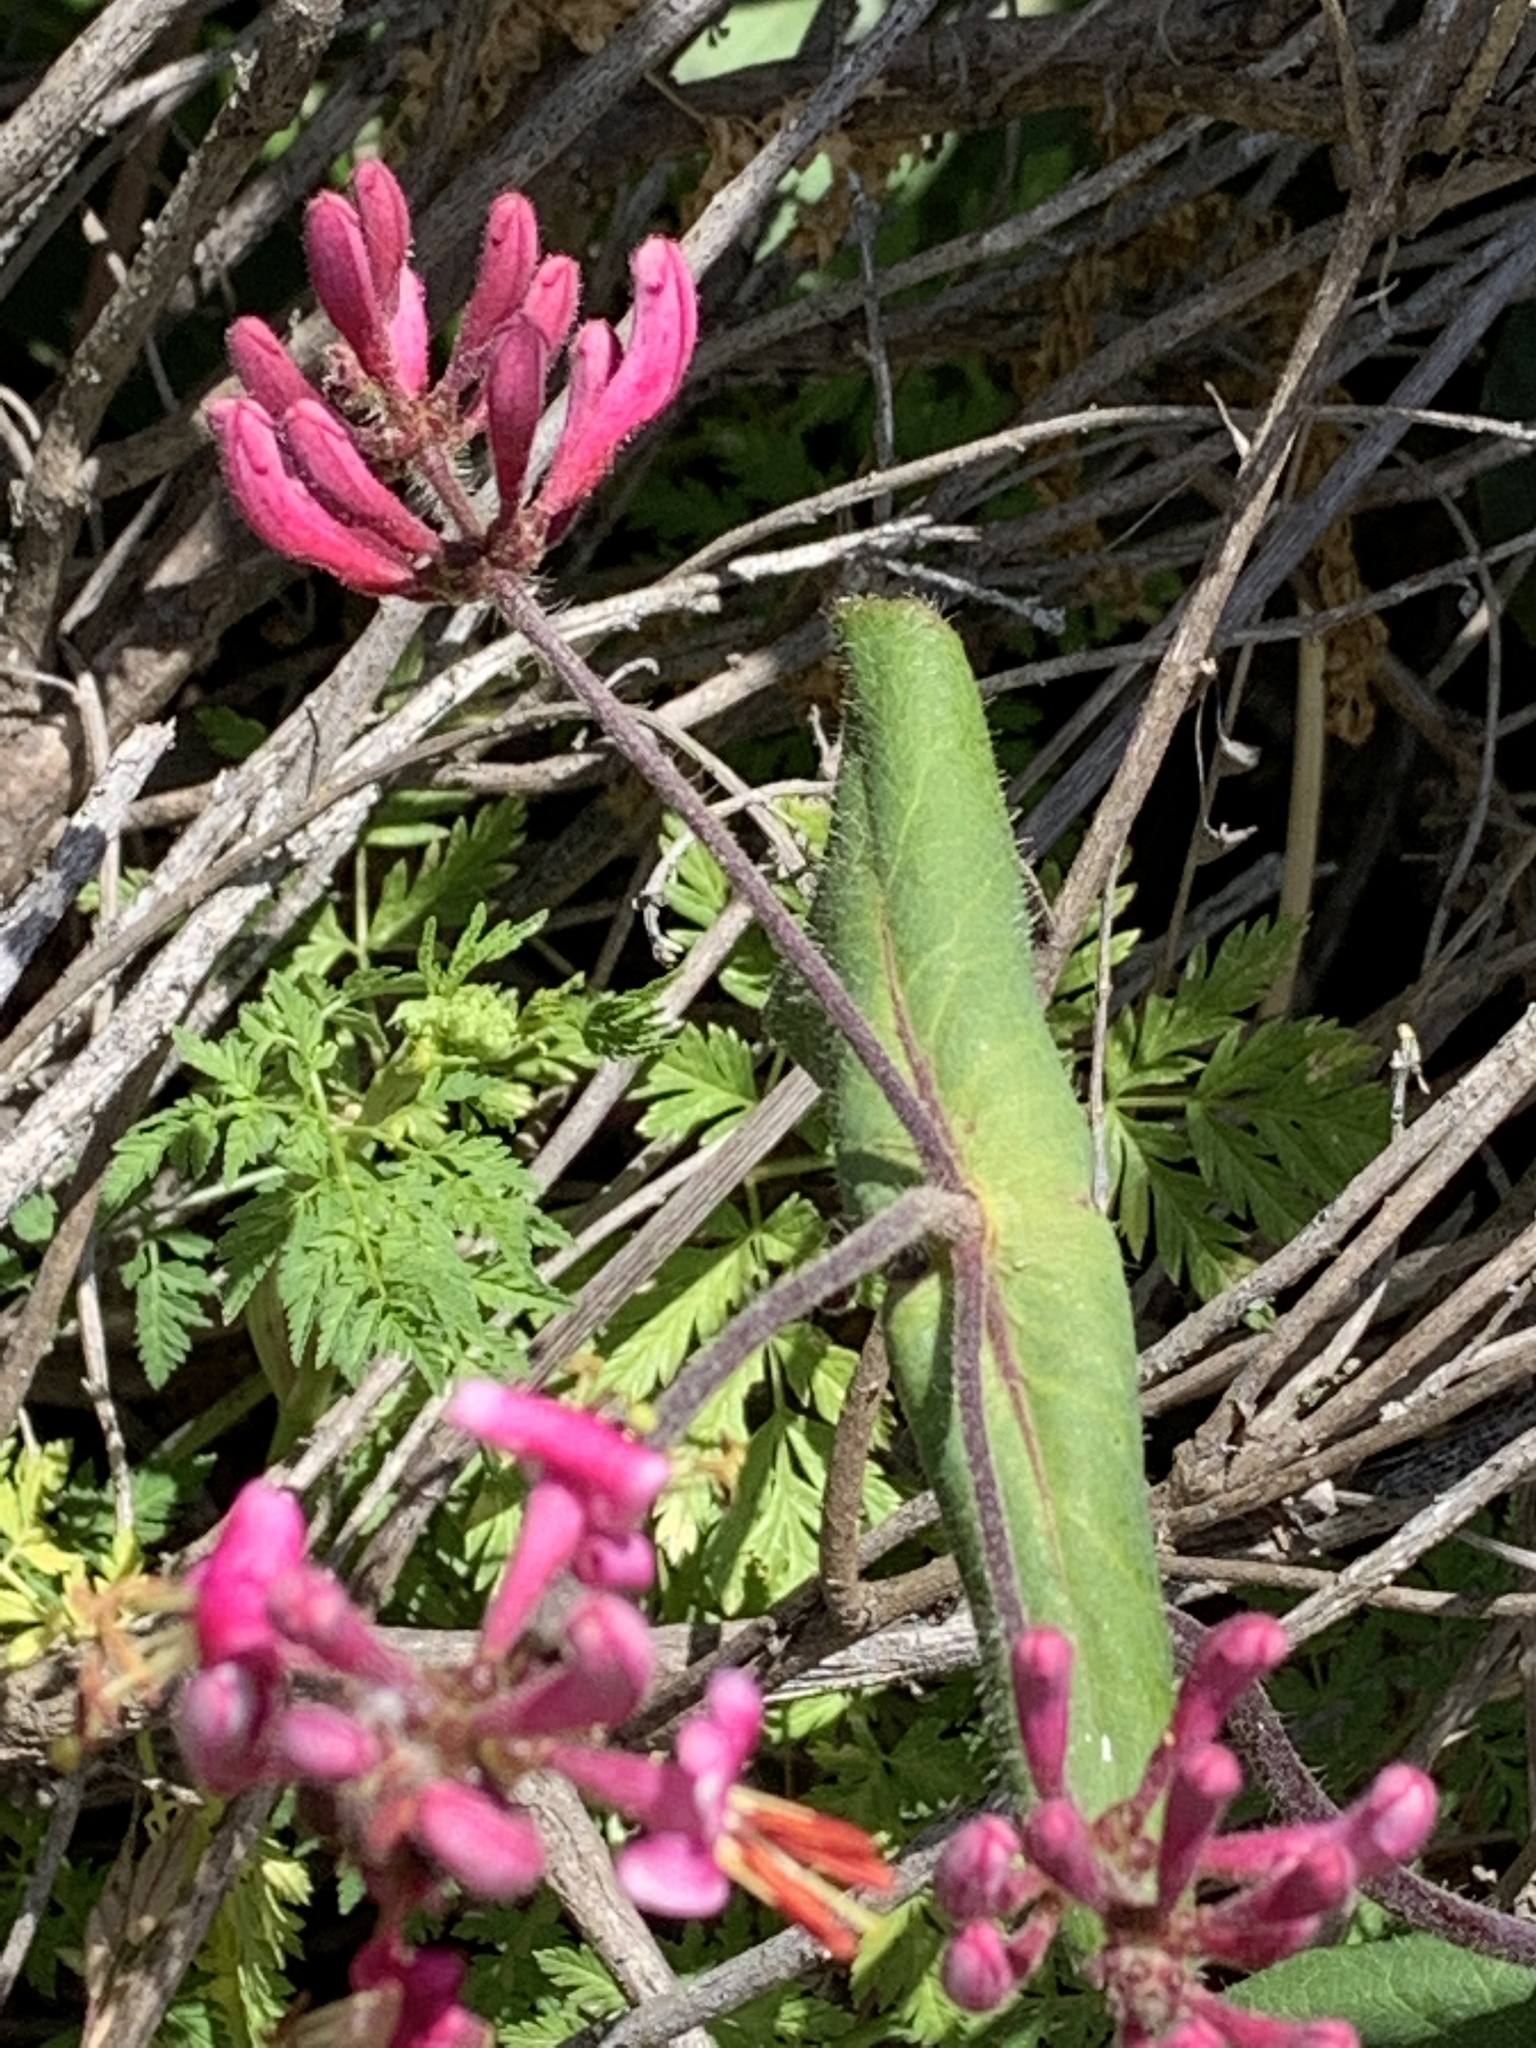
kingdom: Plantae
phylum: Tracheophyta
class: Magnoliopsida
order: Dipsacales
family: Caprifoliaceae
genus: Lonicera
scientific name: Lonicera hispidula
